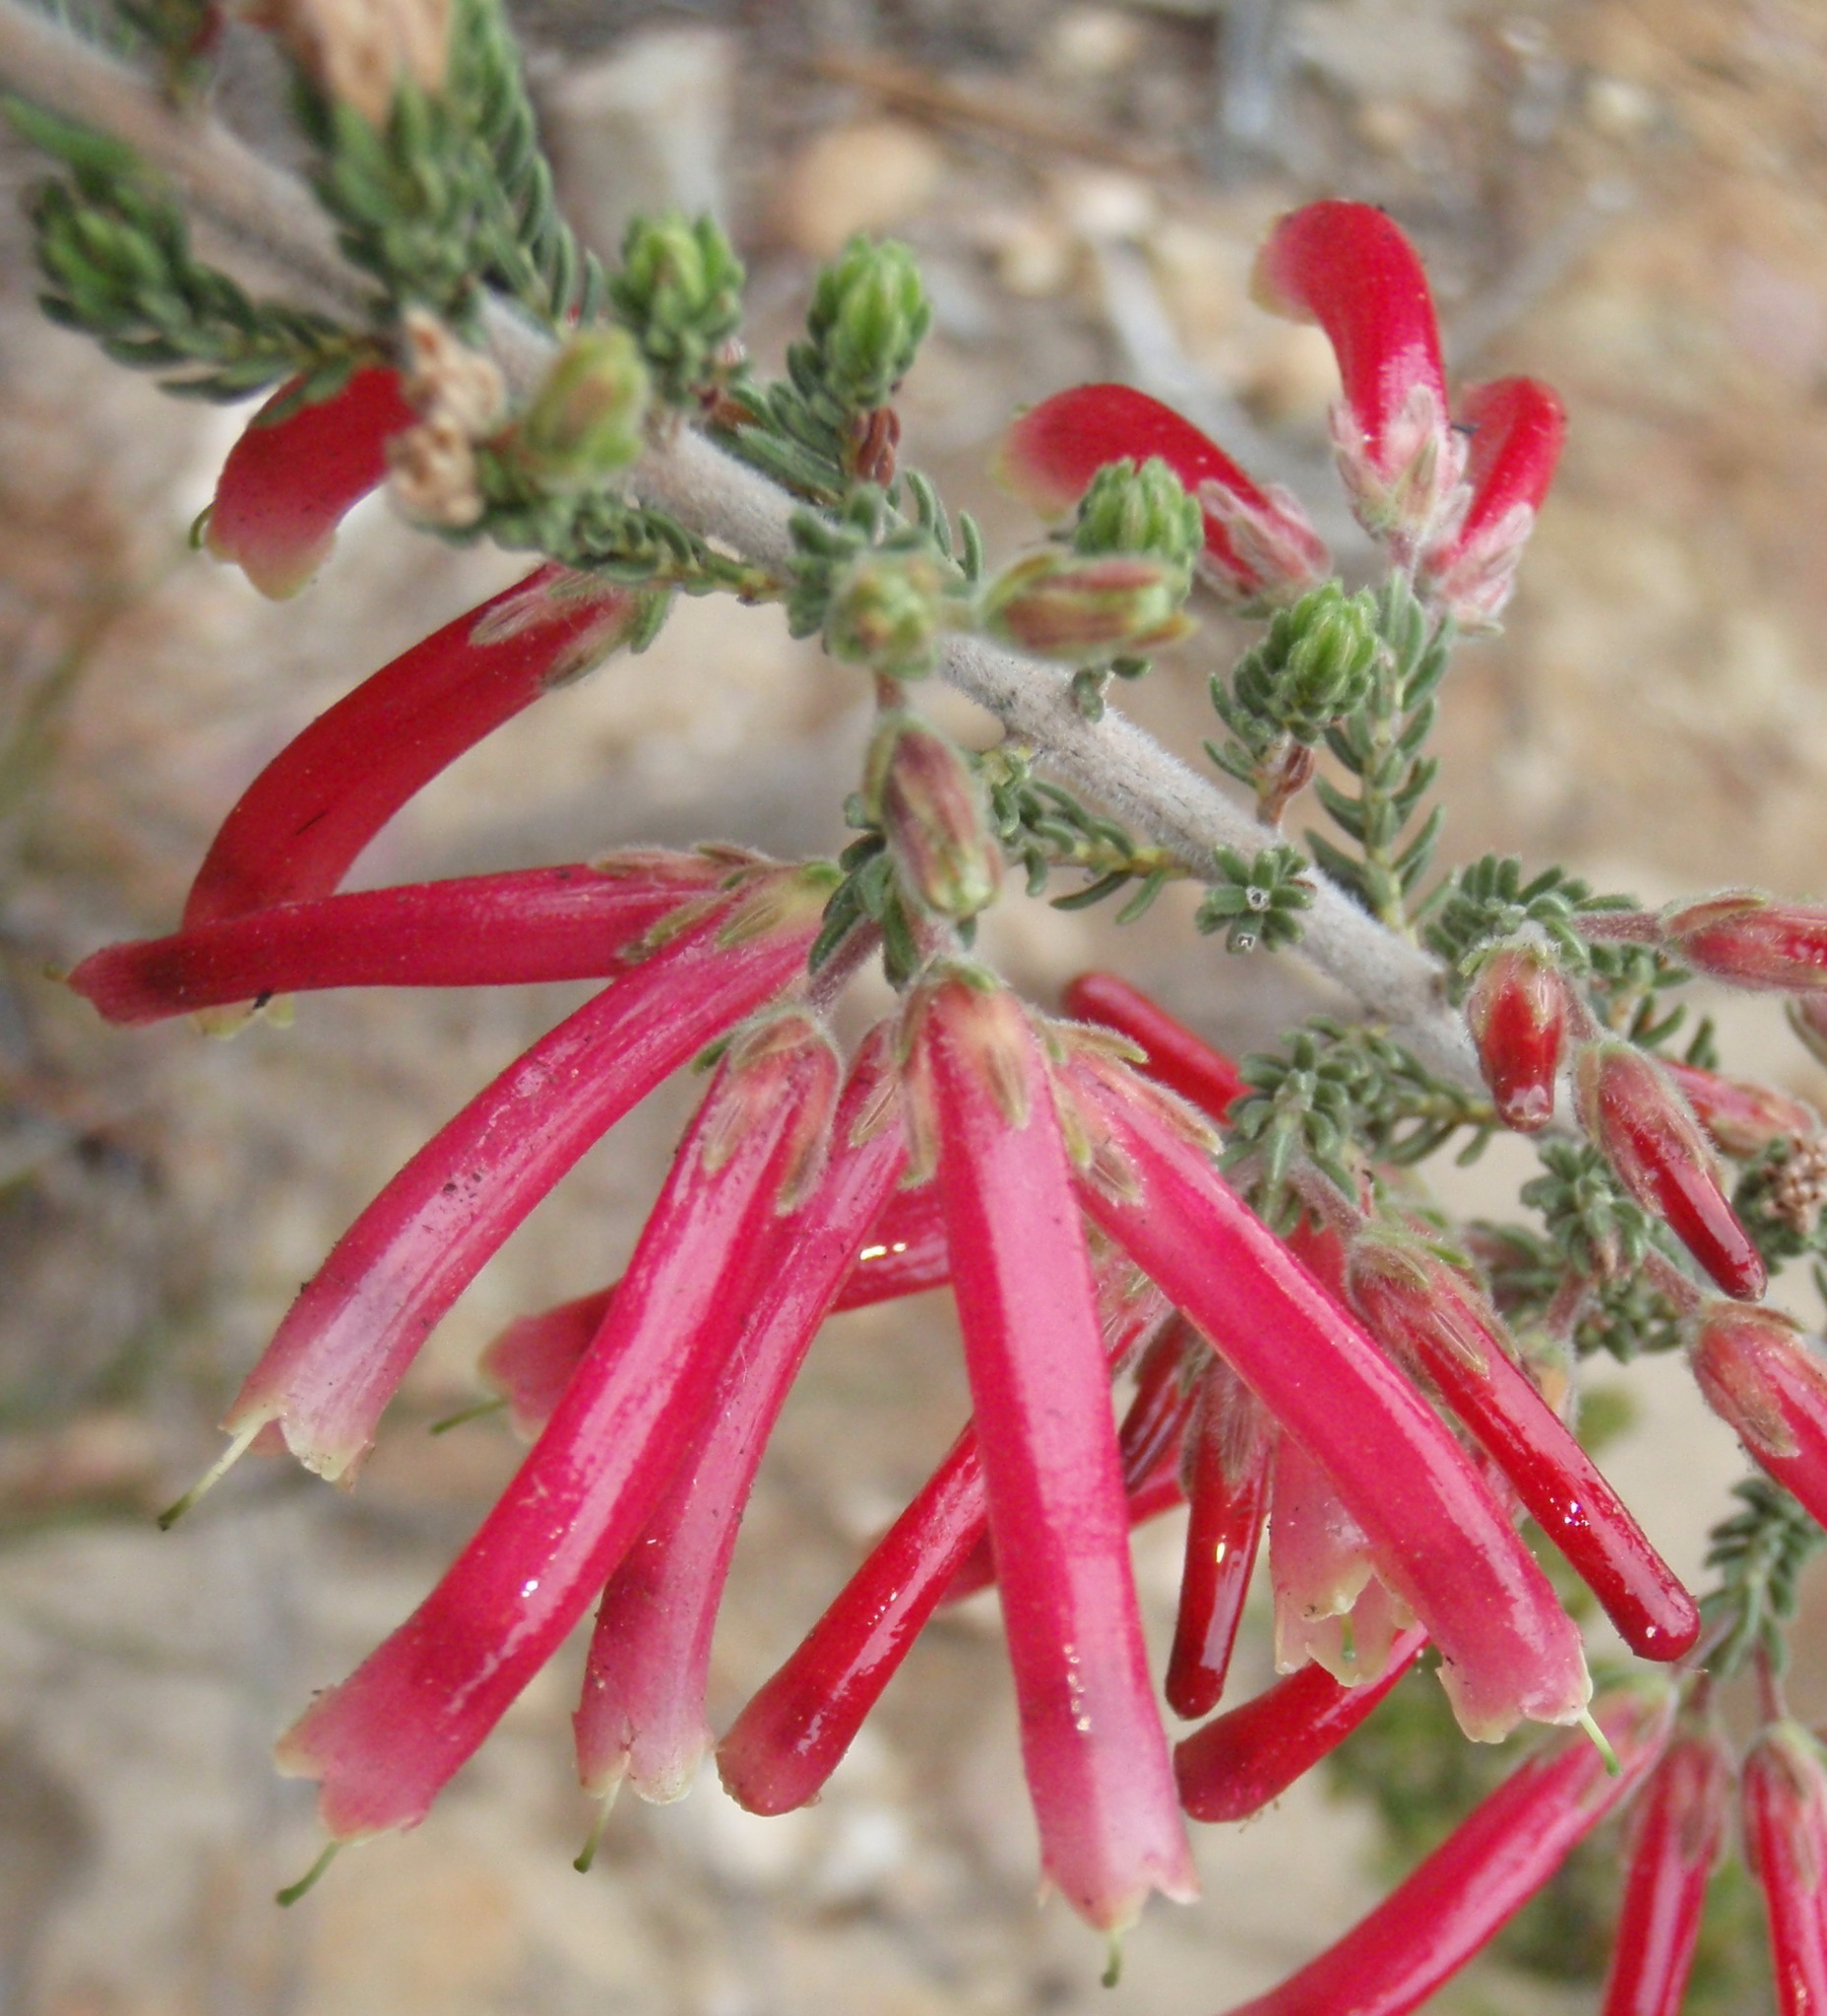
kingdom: Plantae
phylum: Tracheophyta
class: Magnoliopsida
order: Ericales
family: Ericaceae
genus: Erica
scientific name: Erica discolor
